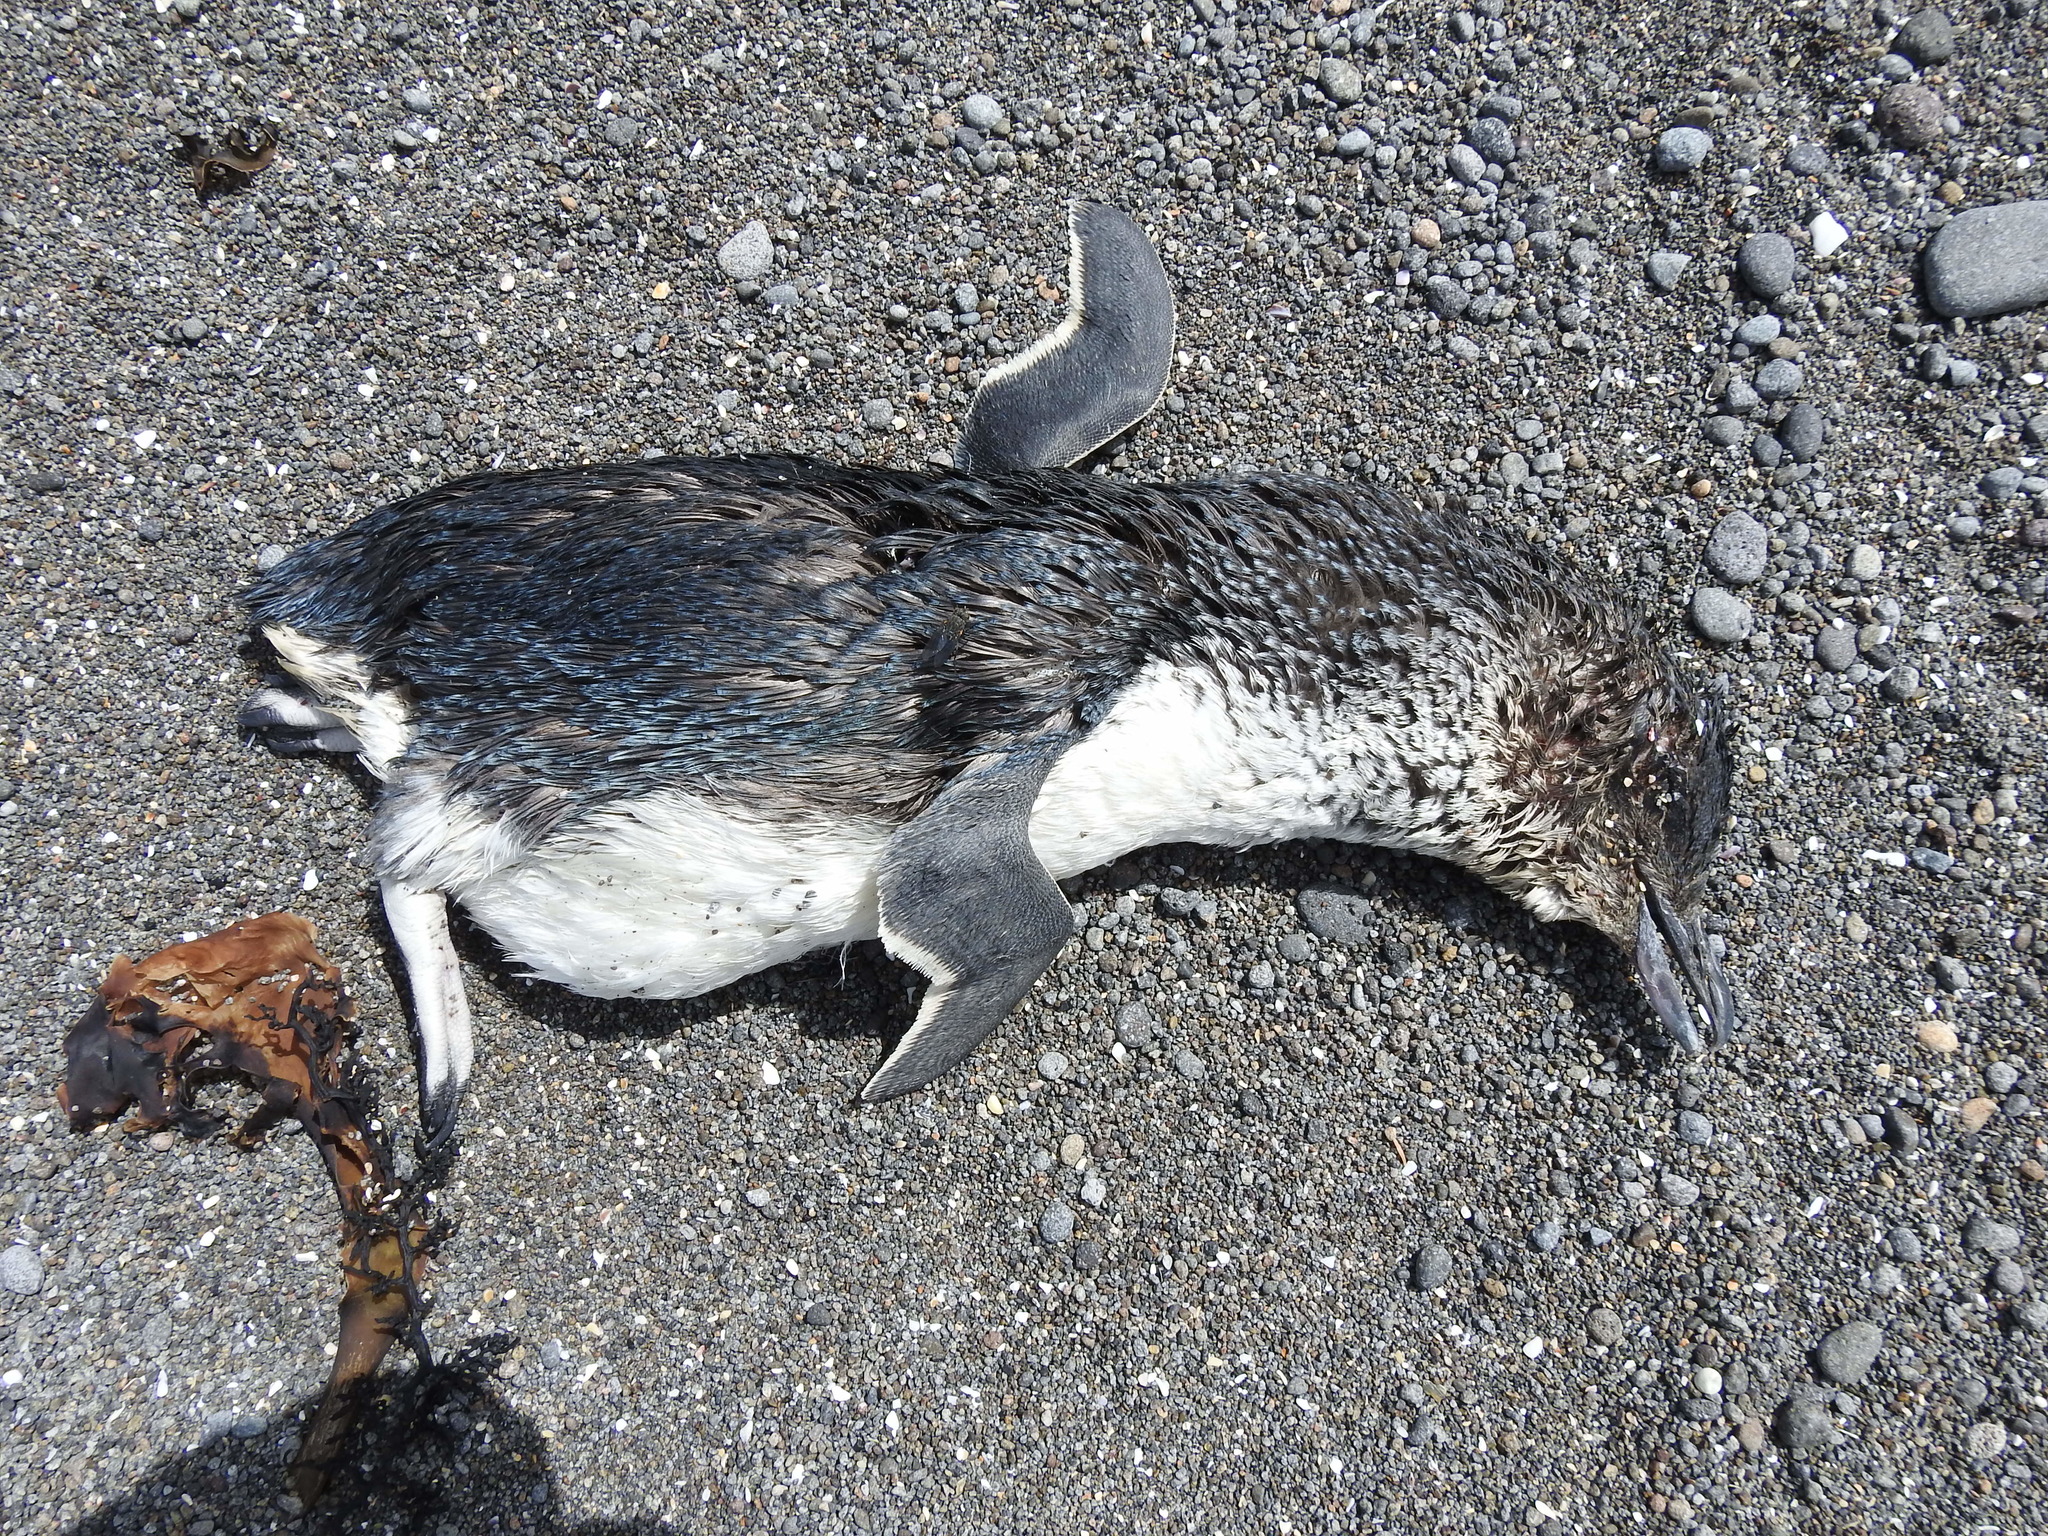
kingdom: Animalia
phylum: Chordata
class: Aves
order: Sphenisciformes
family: Spheniscidae
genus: Eudyptula
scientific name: Eudyptula minor
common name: Little penguin
